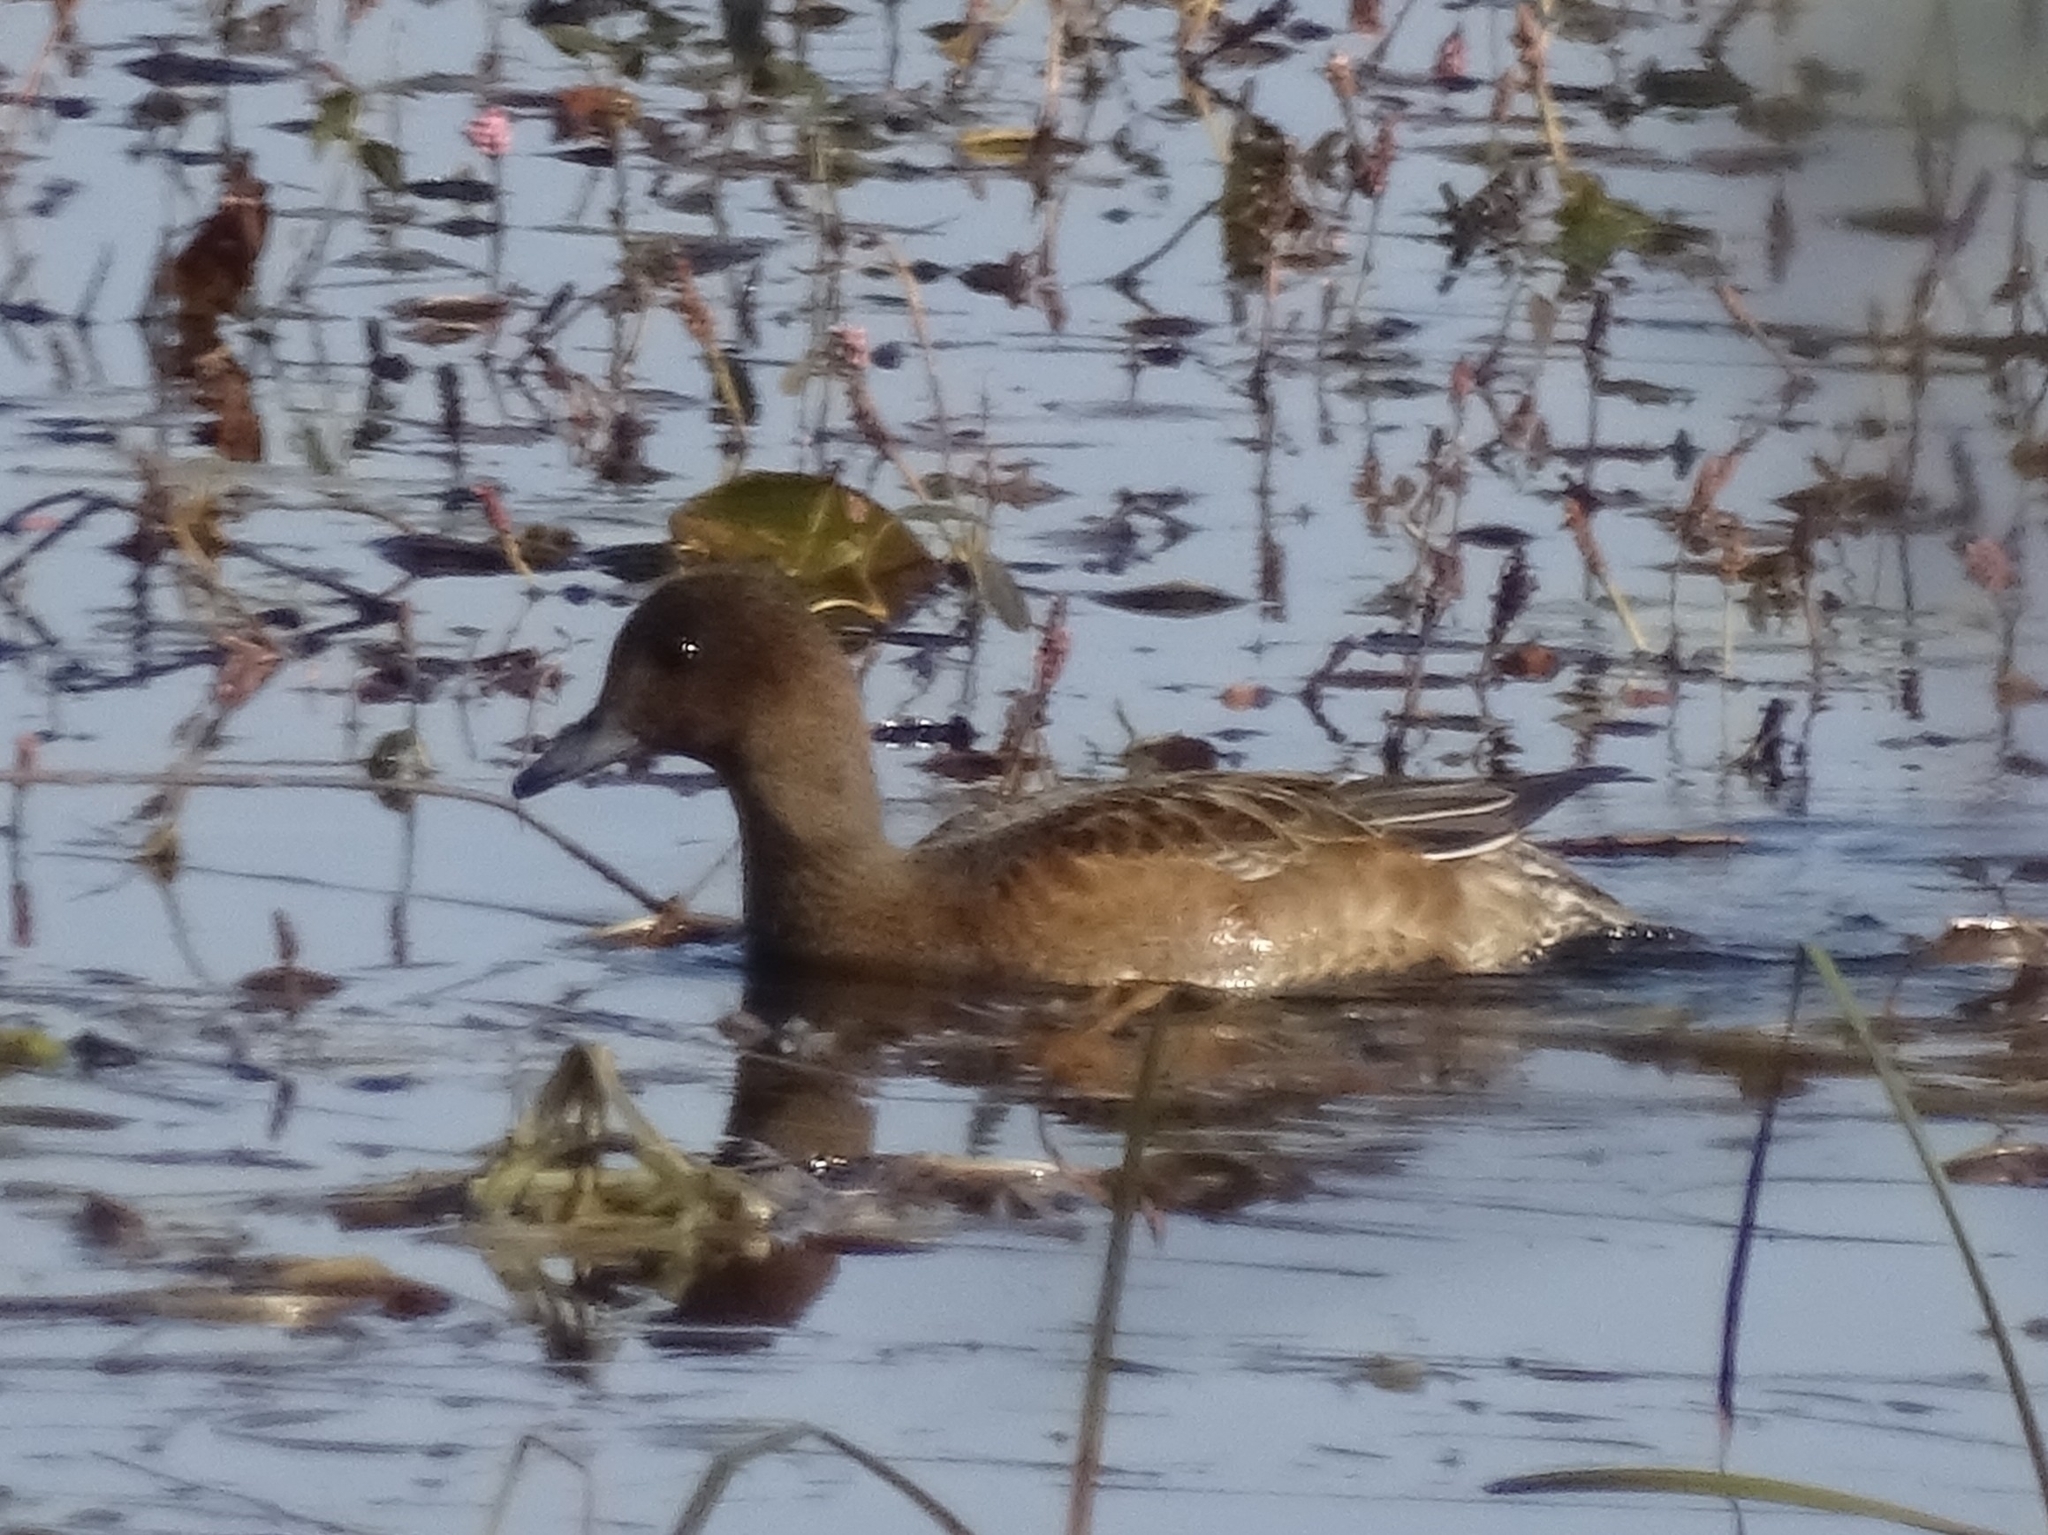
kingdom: Animalia
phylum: Chordata
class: Aves
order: Anseriformes
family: Anatidae
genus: Mareca
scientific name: Mareca penelope
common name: Eurasian wigeon
